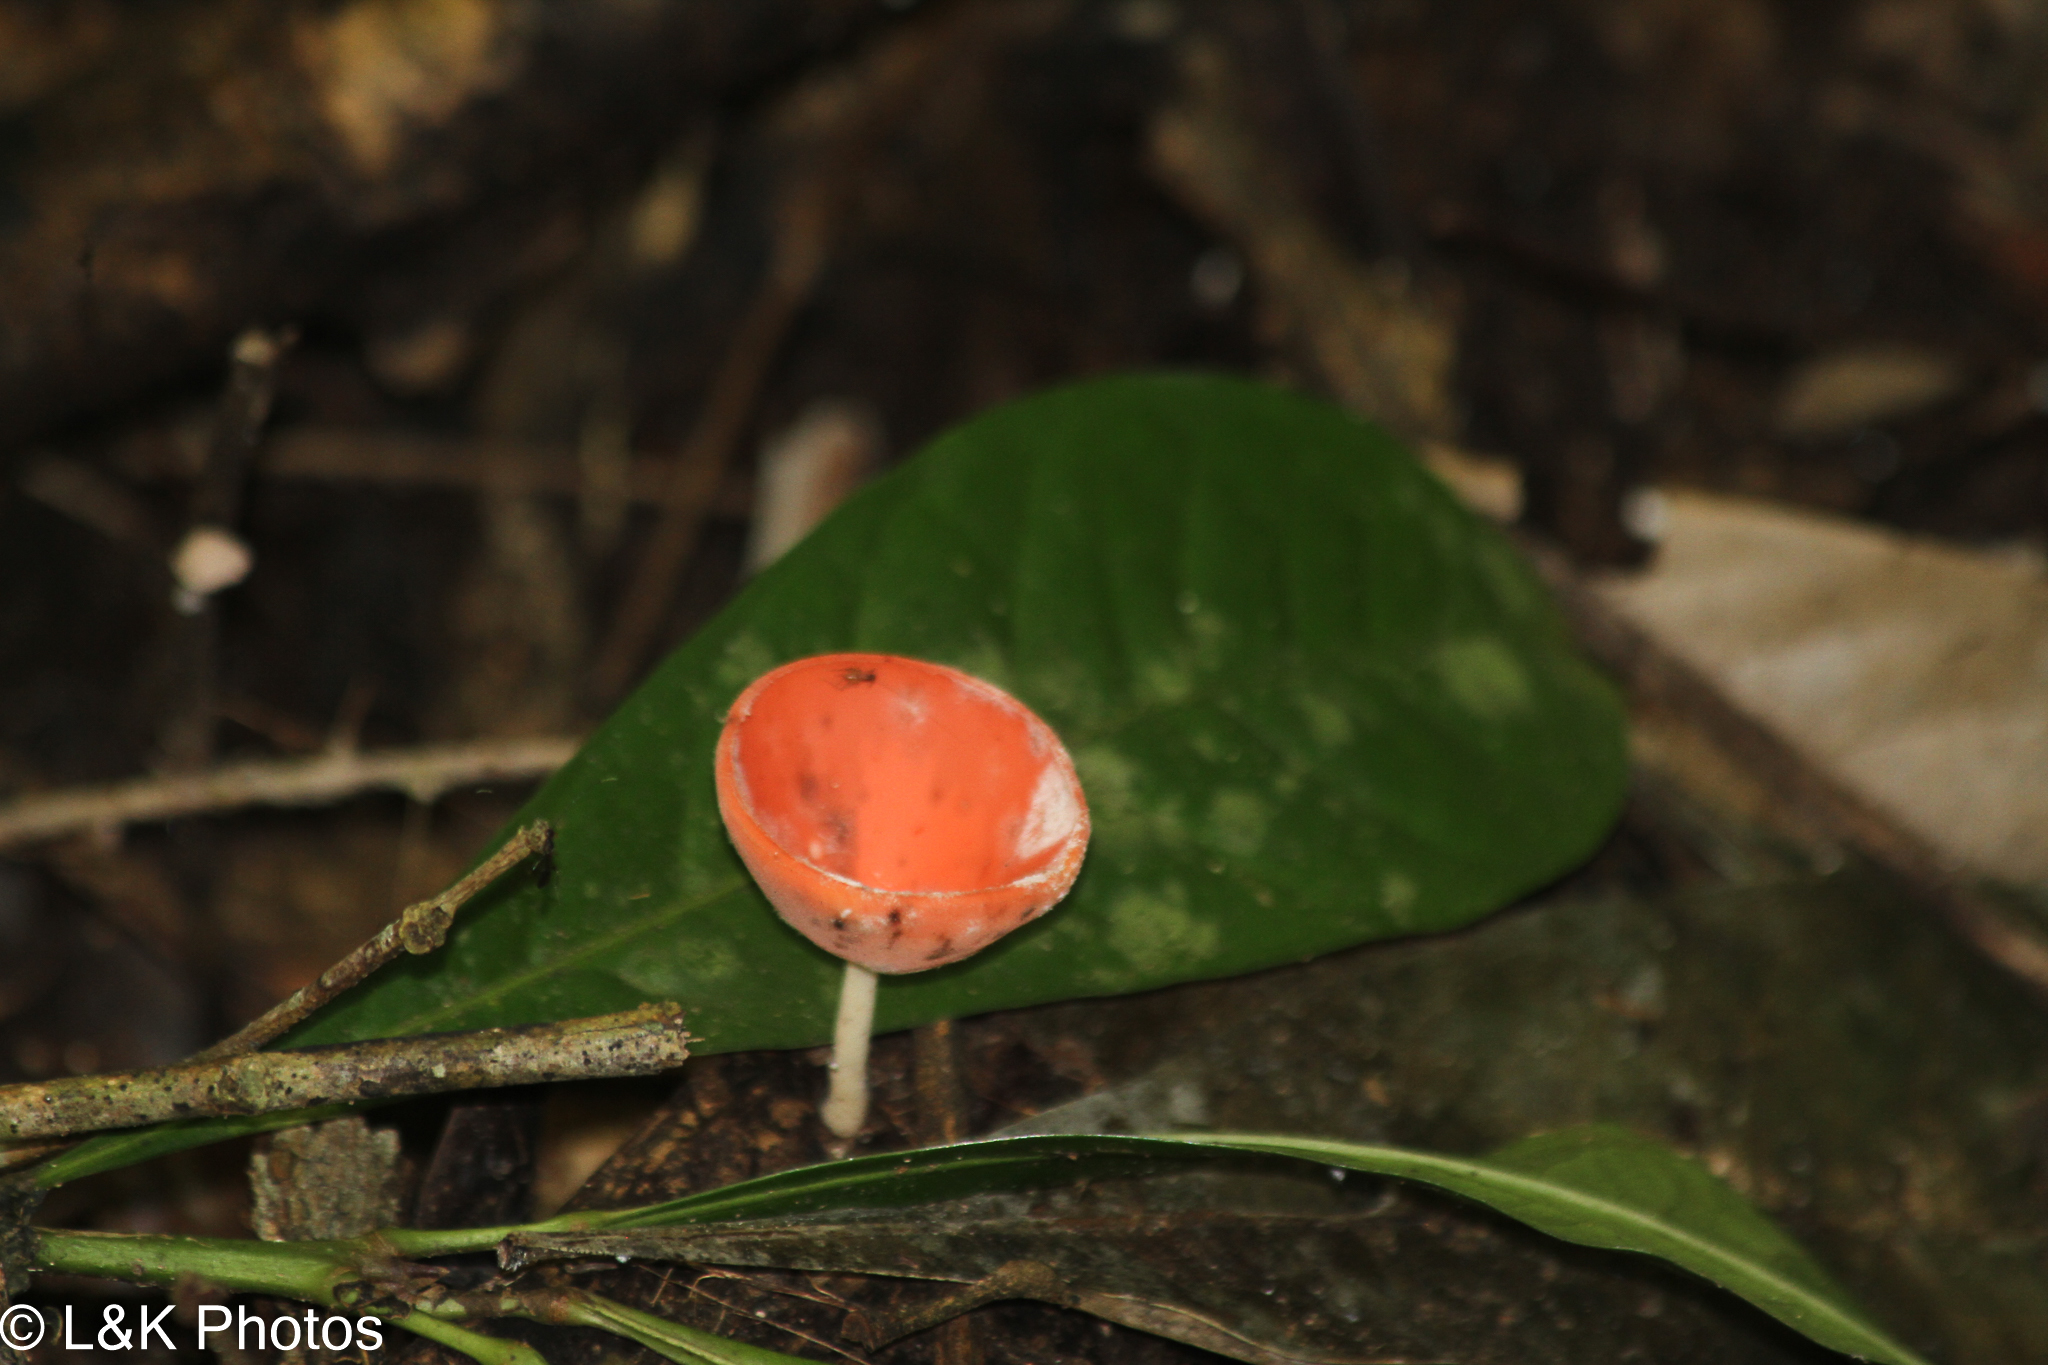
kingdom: Fungi
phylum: Ascomycota
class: Pezizomycetes
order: Pezizales
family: Sarcoscyphaceae
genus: Cookeina
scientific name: Cookeina speciosa
